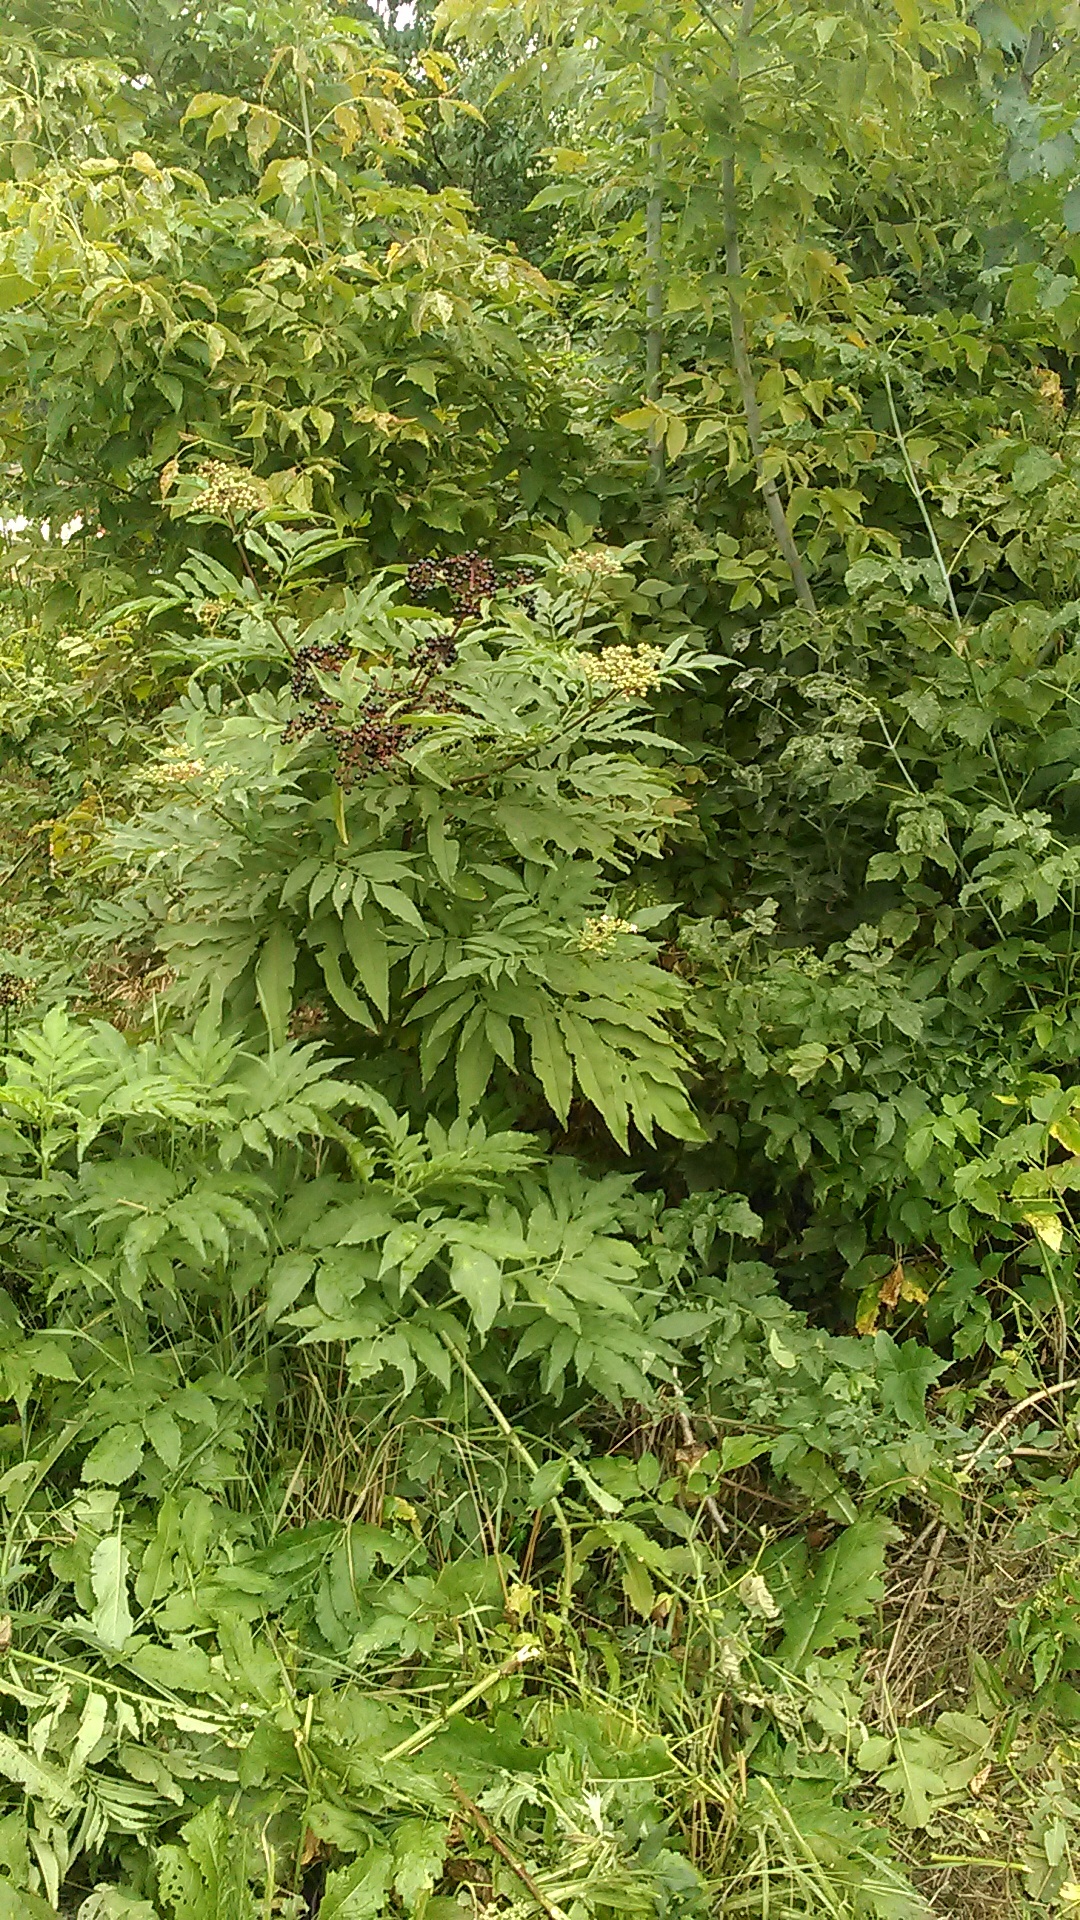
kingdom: Plantae
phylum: Tracheophyta
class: Magnoliopsida
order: Dipsacales
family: Viburnaceae
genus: Sambucus
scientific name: Sambucus ebulus
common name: Dwarf elder
